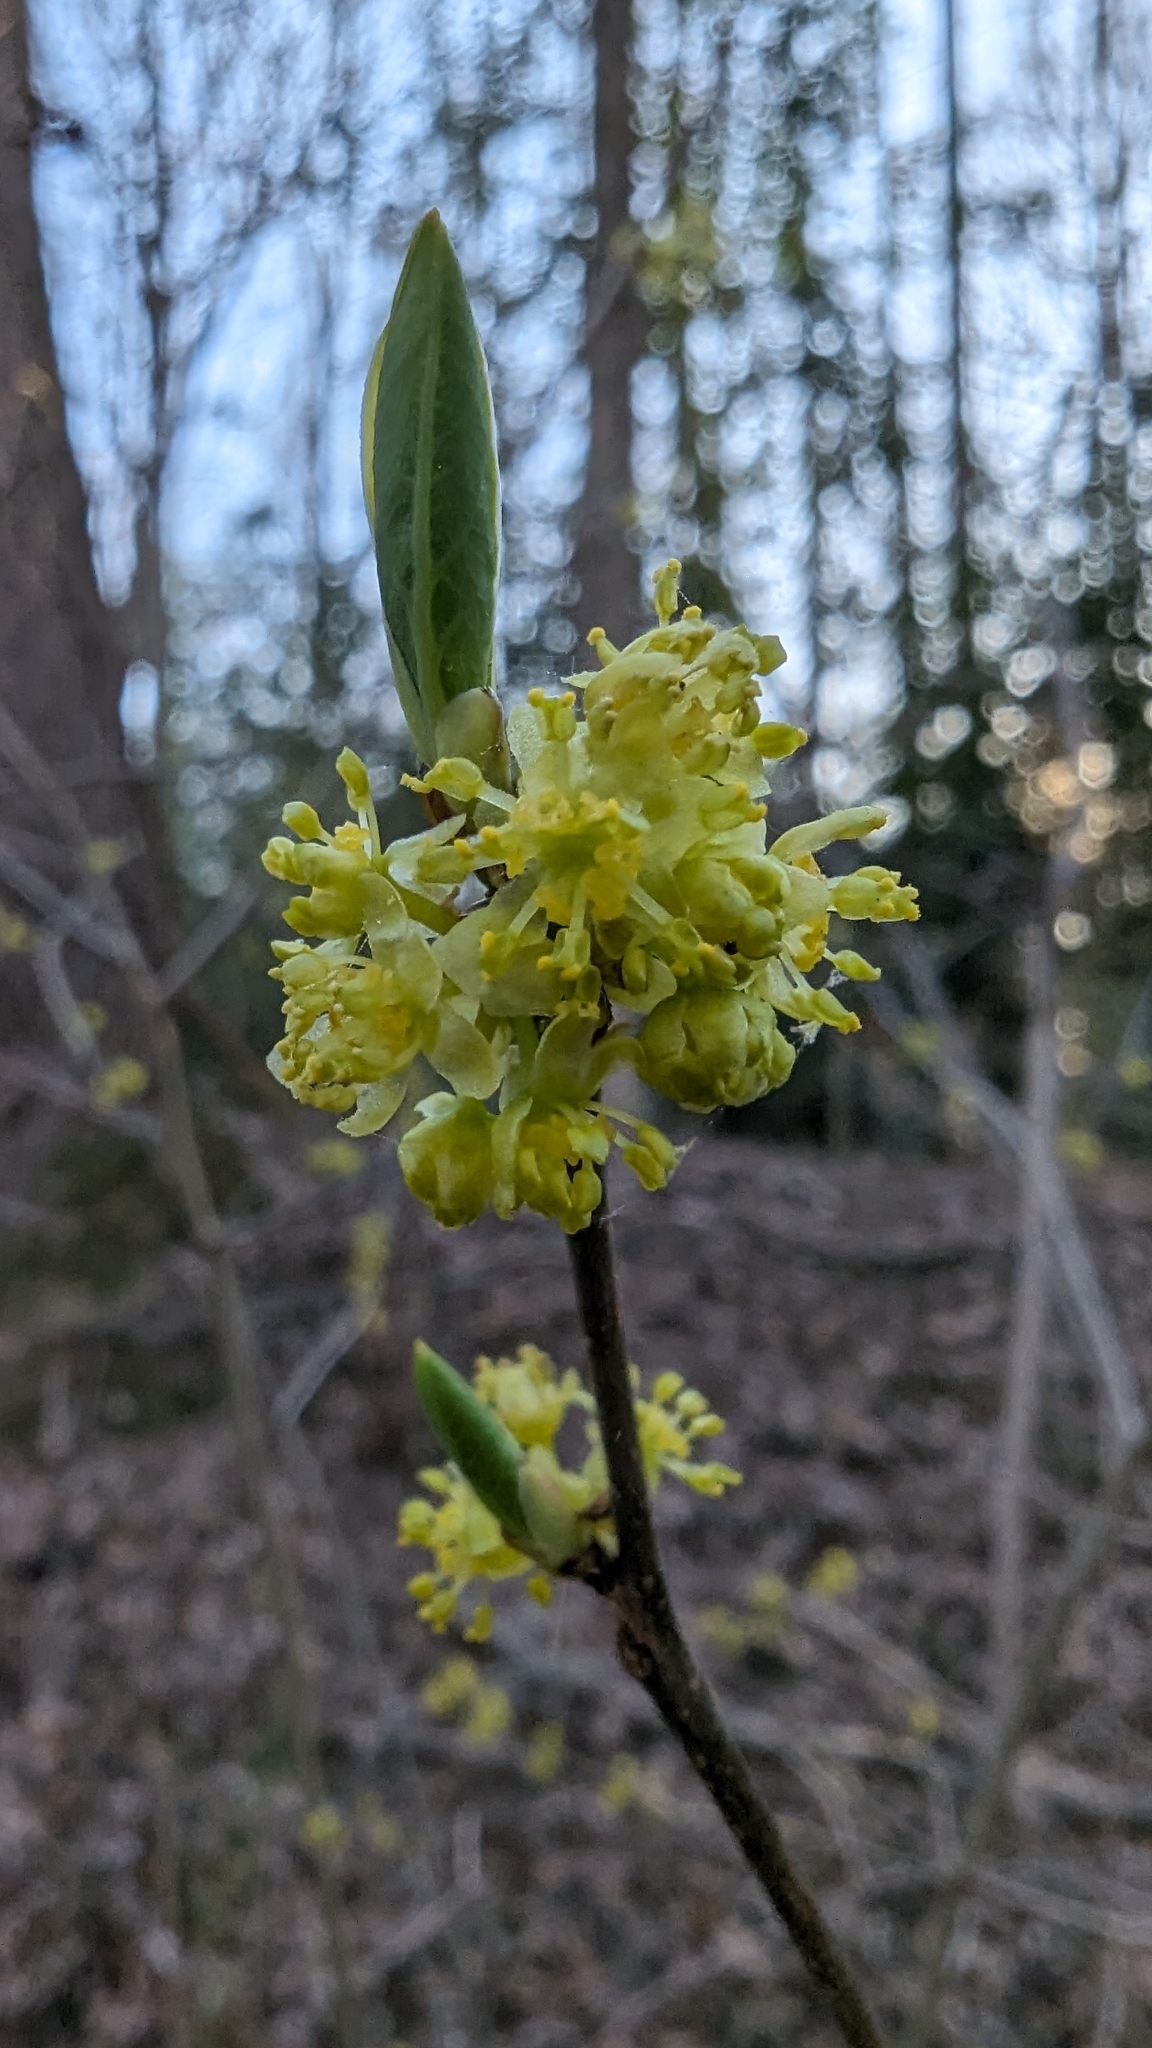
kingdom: Plantae
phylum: Tracheophyta
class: Magnoliopsida
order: Laurales
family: Lauraceae
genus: Lindera
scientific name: Lindera benzoin
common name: Spicebush
